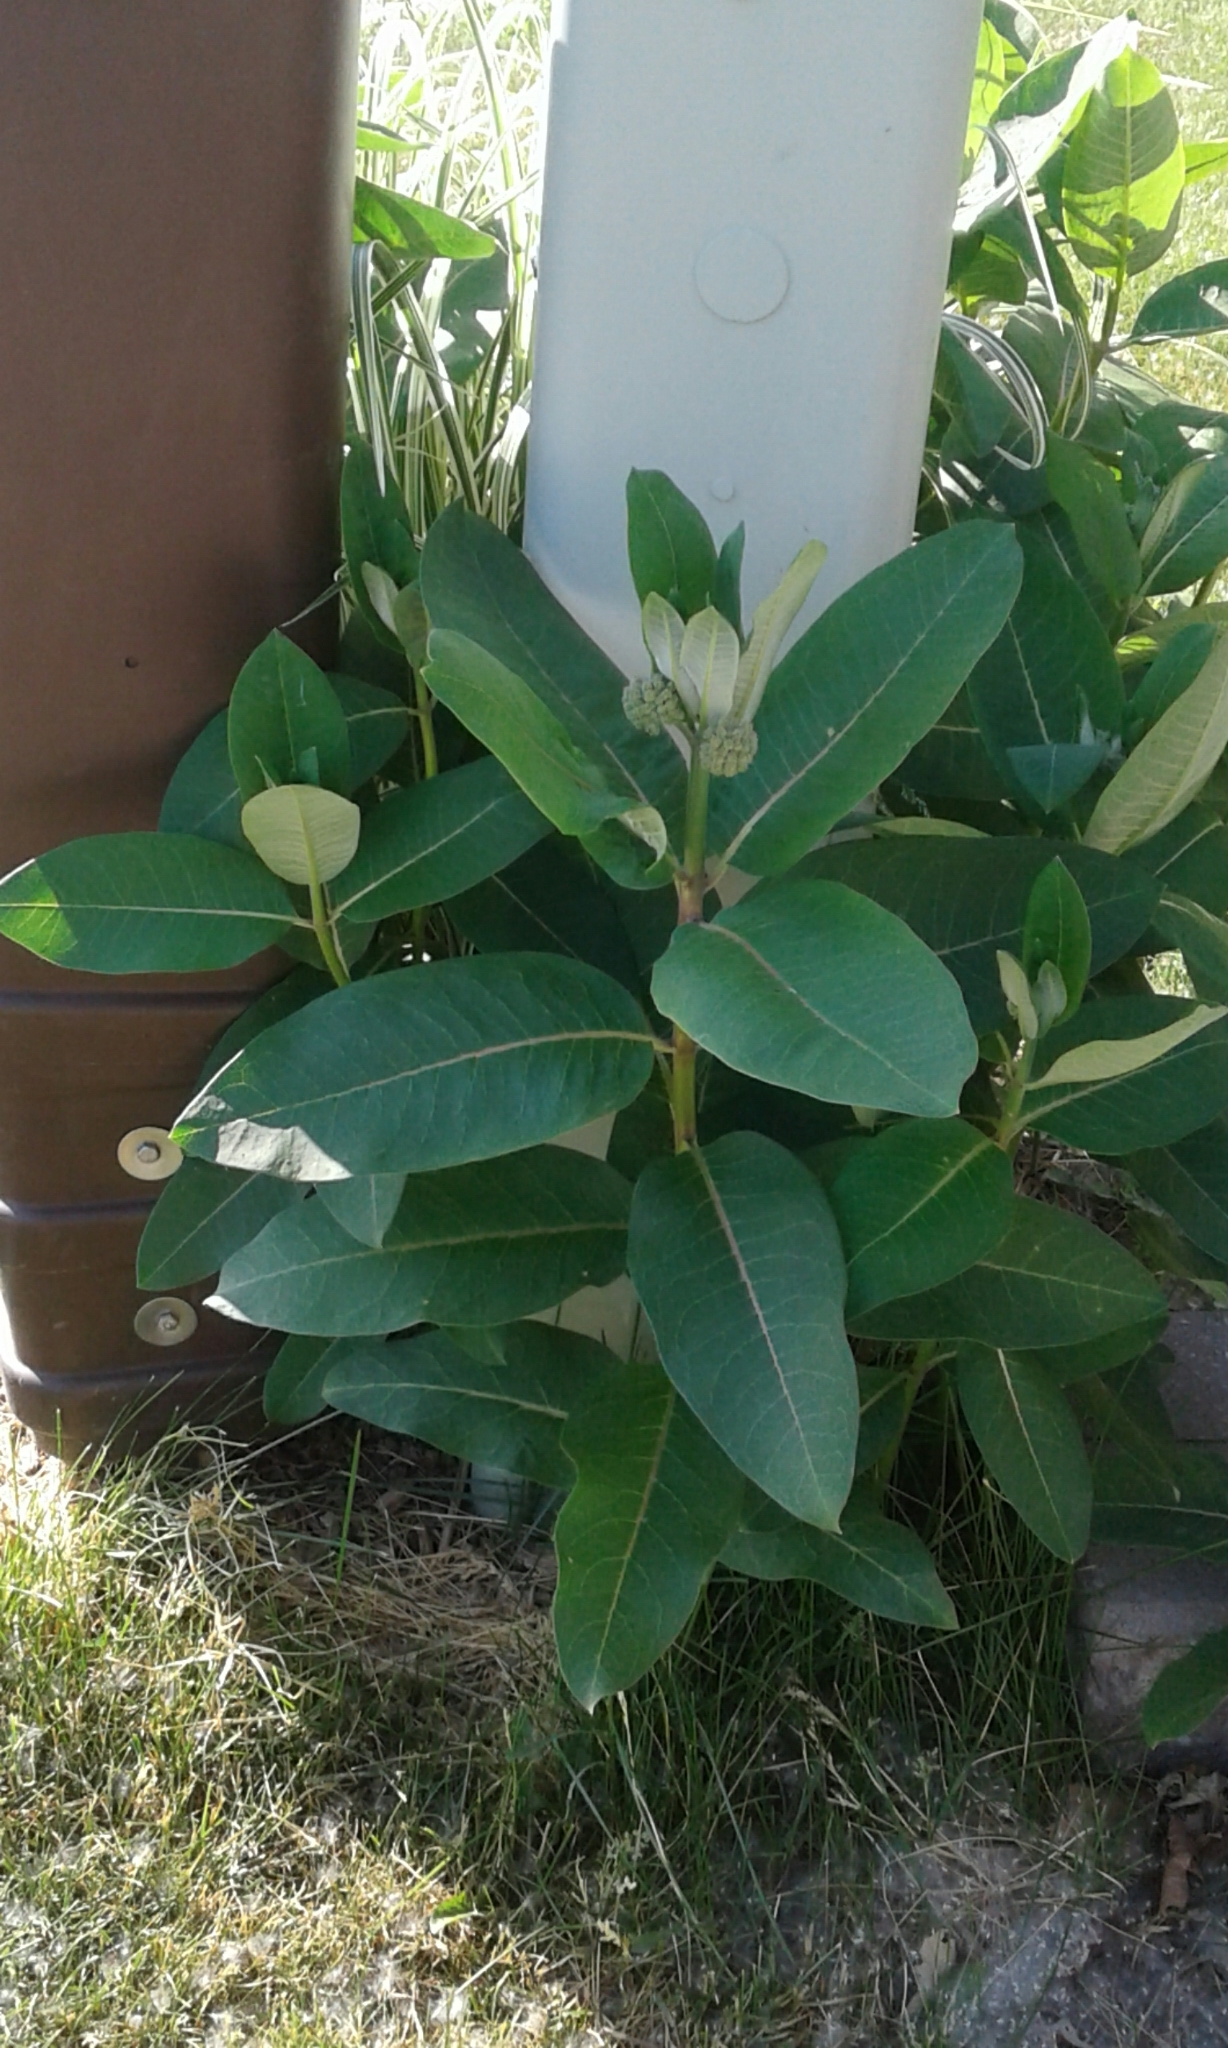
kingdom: Plantae
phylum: Tracheophyta
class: Magnoliopsida
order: Gentianales
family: Apocynaceae
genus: Asclepias
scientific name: Asclepias syriaca
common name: Common milkweed
